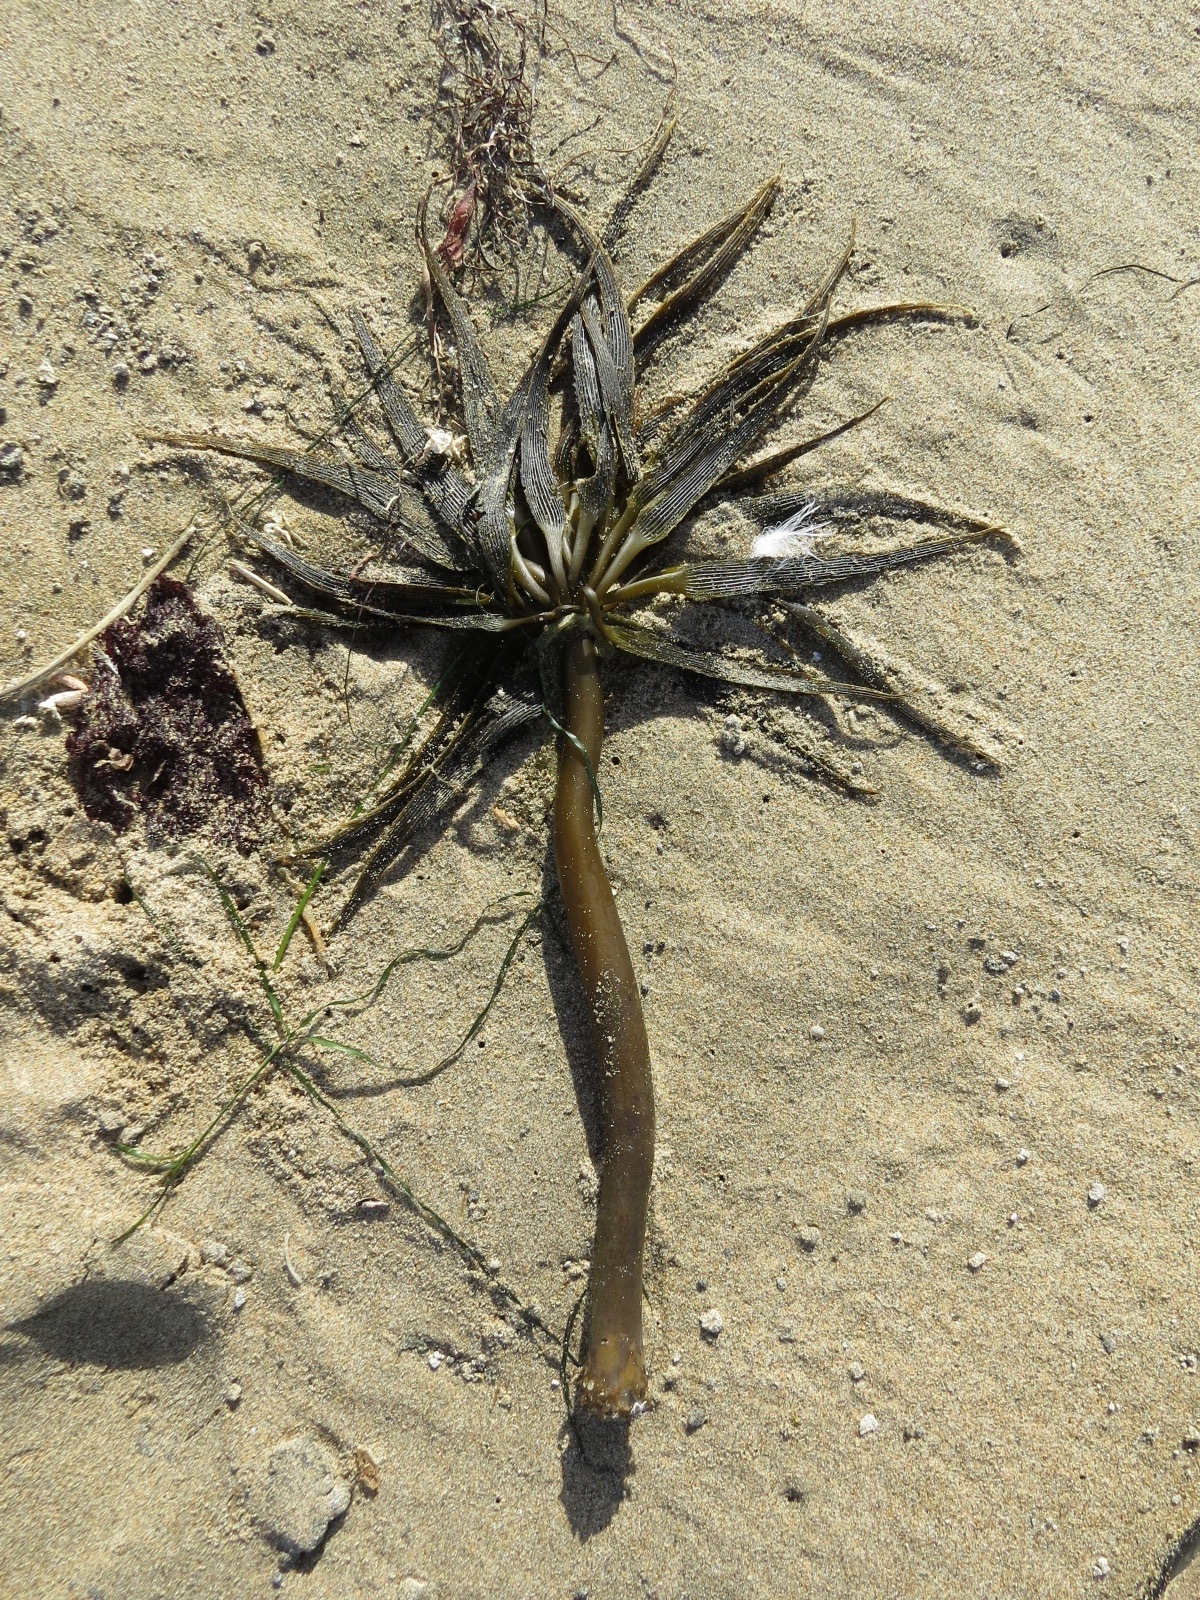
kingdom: Chromista
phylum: Ochrophyta
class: Phaeophyceae
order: Laminariales
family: Laminariaceae
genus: Postelsia
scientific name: Postelsia palmiformis
